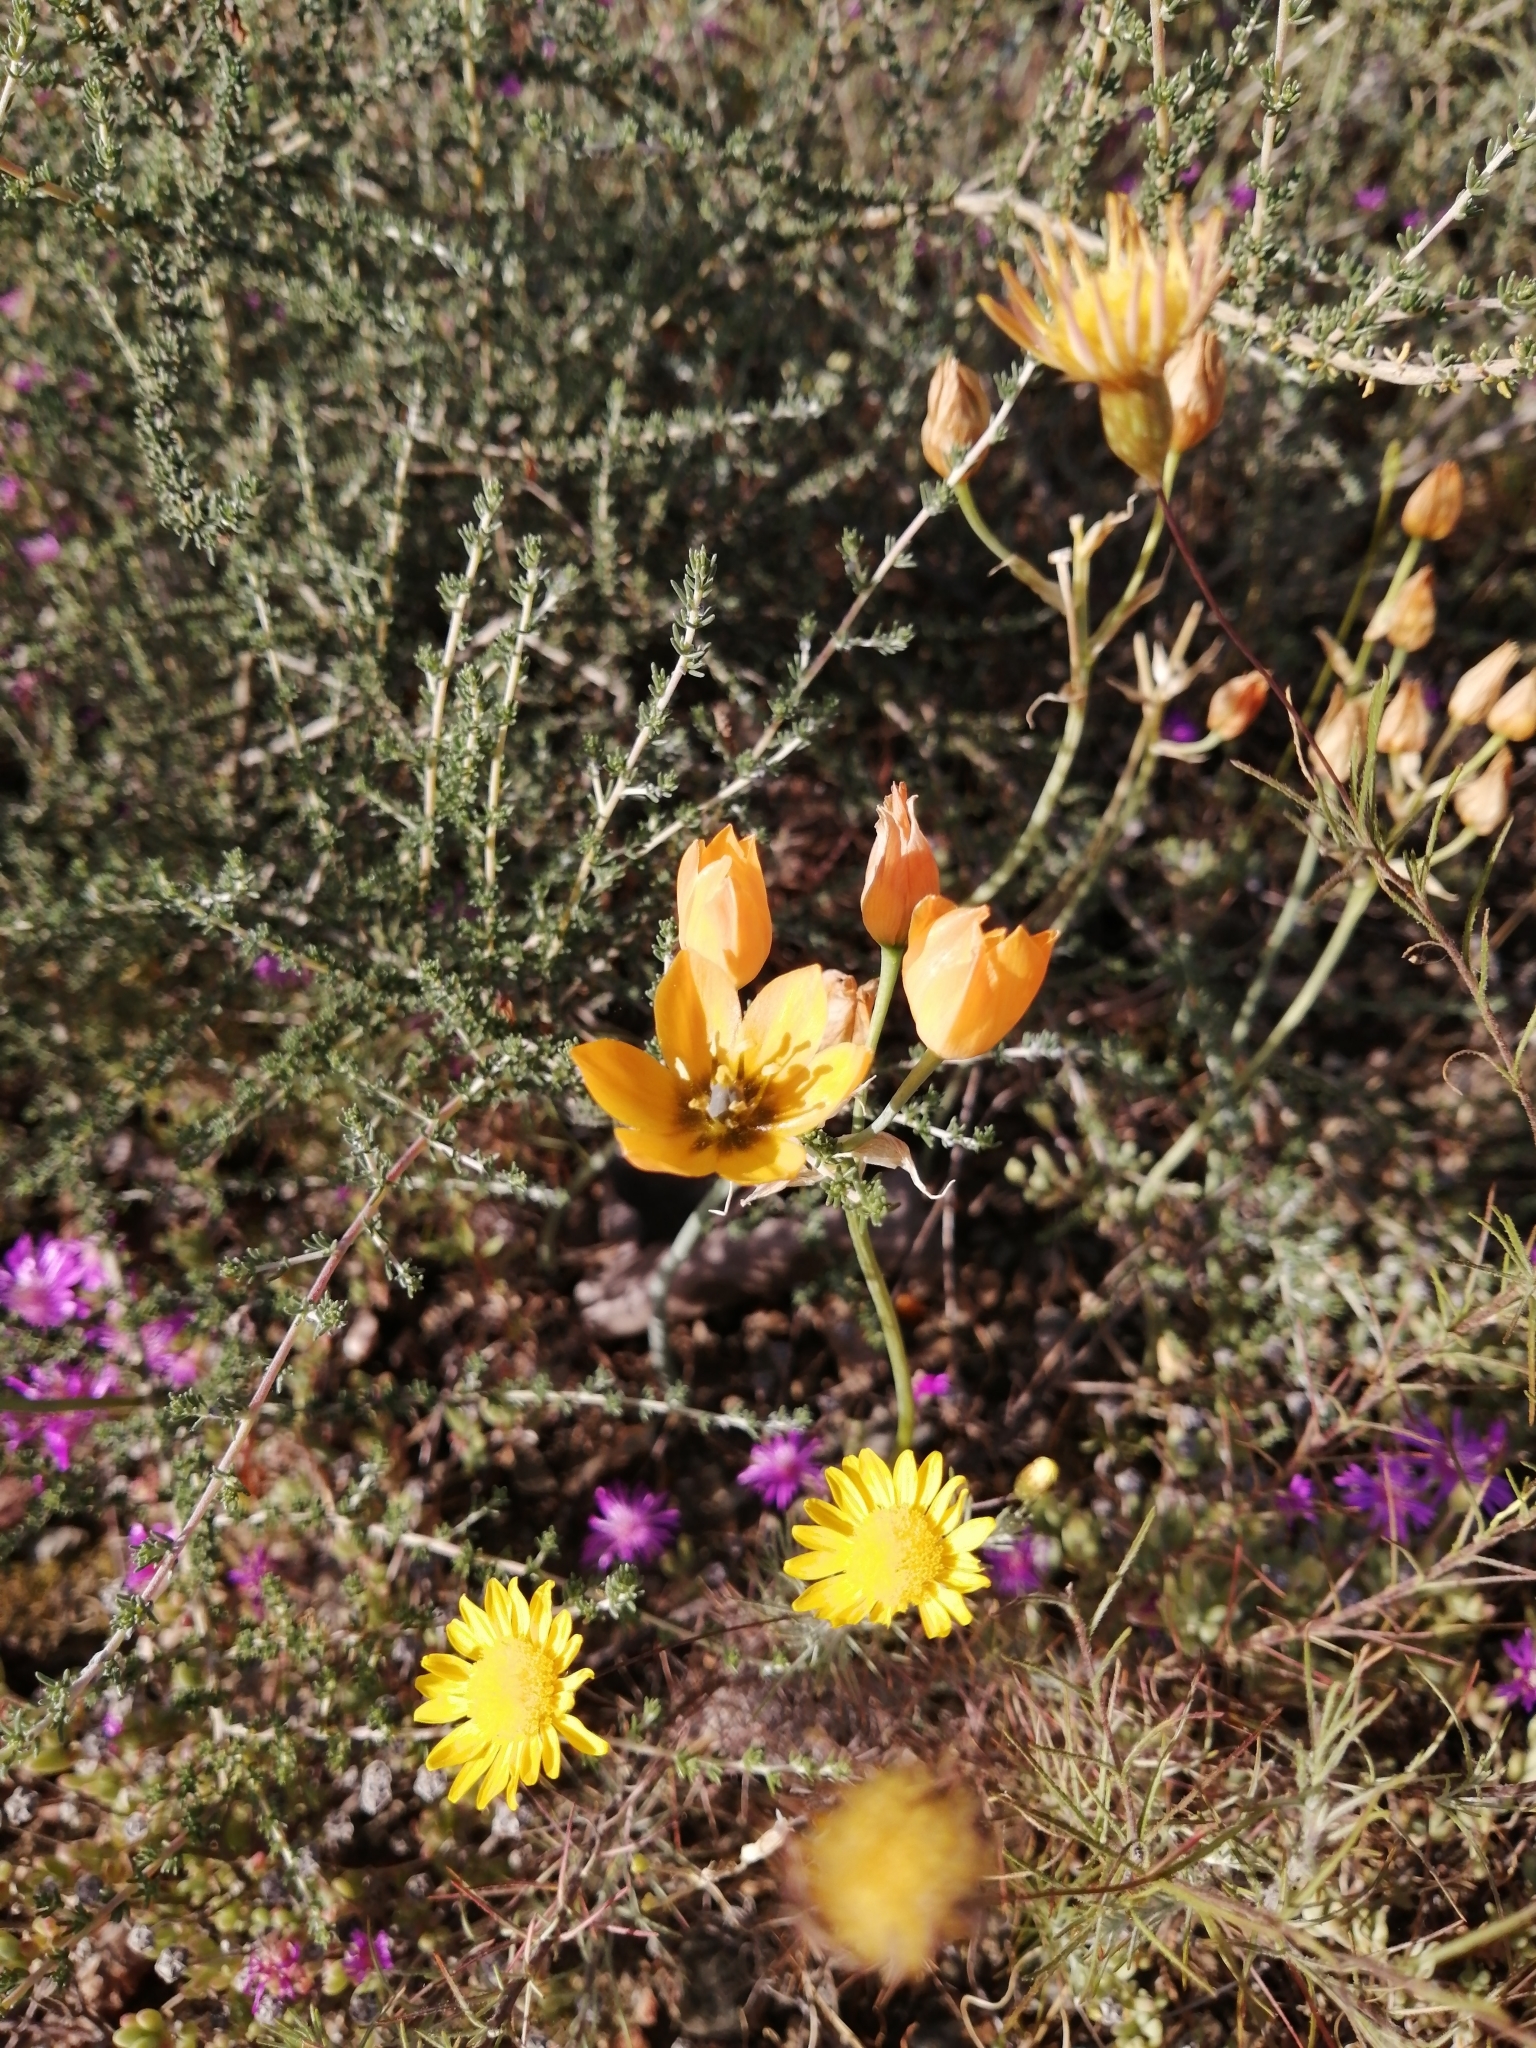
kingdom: Plantae
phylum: Tracheophyta
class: Liliopsida
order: Asparagales
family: Asparagaceae
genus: Ornithogalum
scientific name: Ornithogalum dubium
